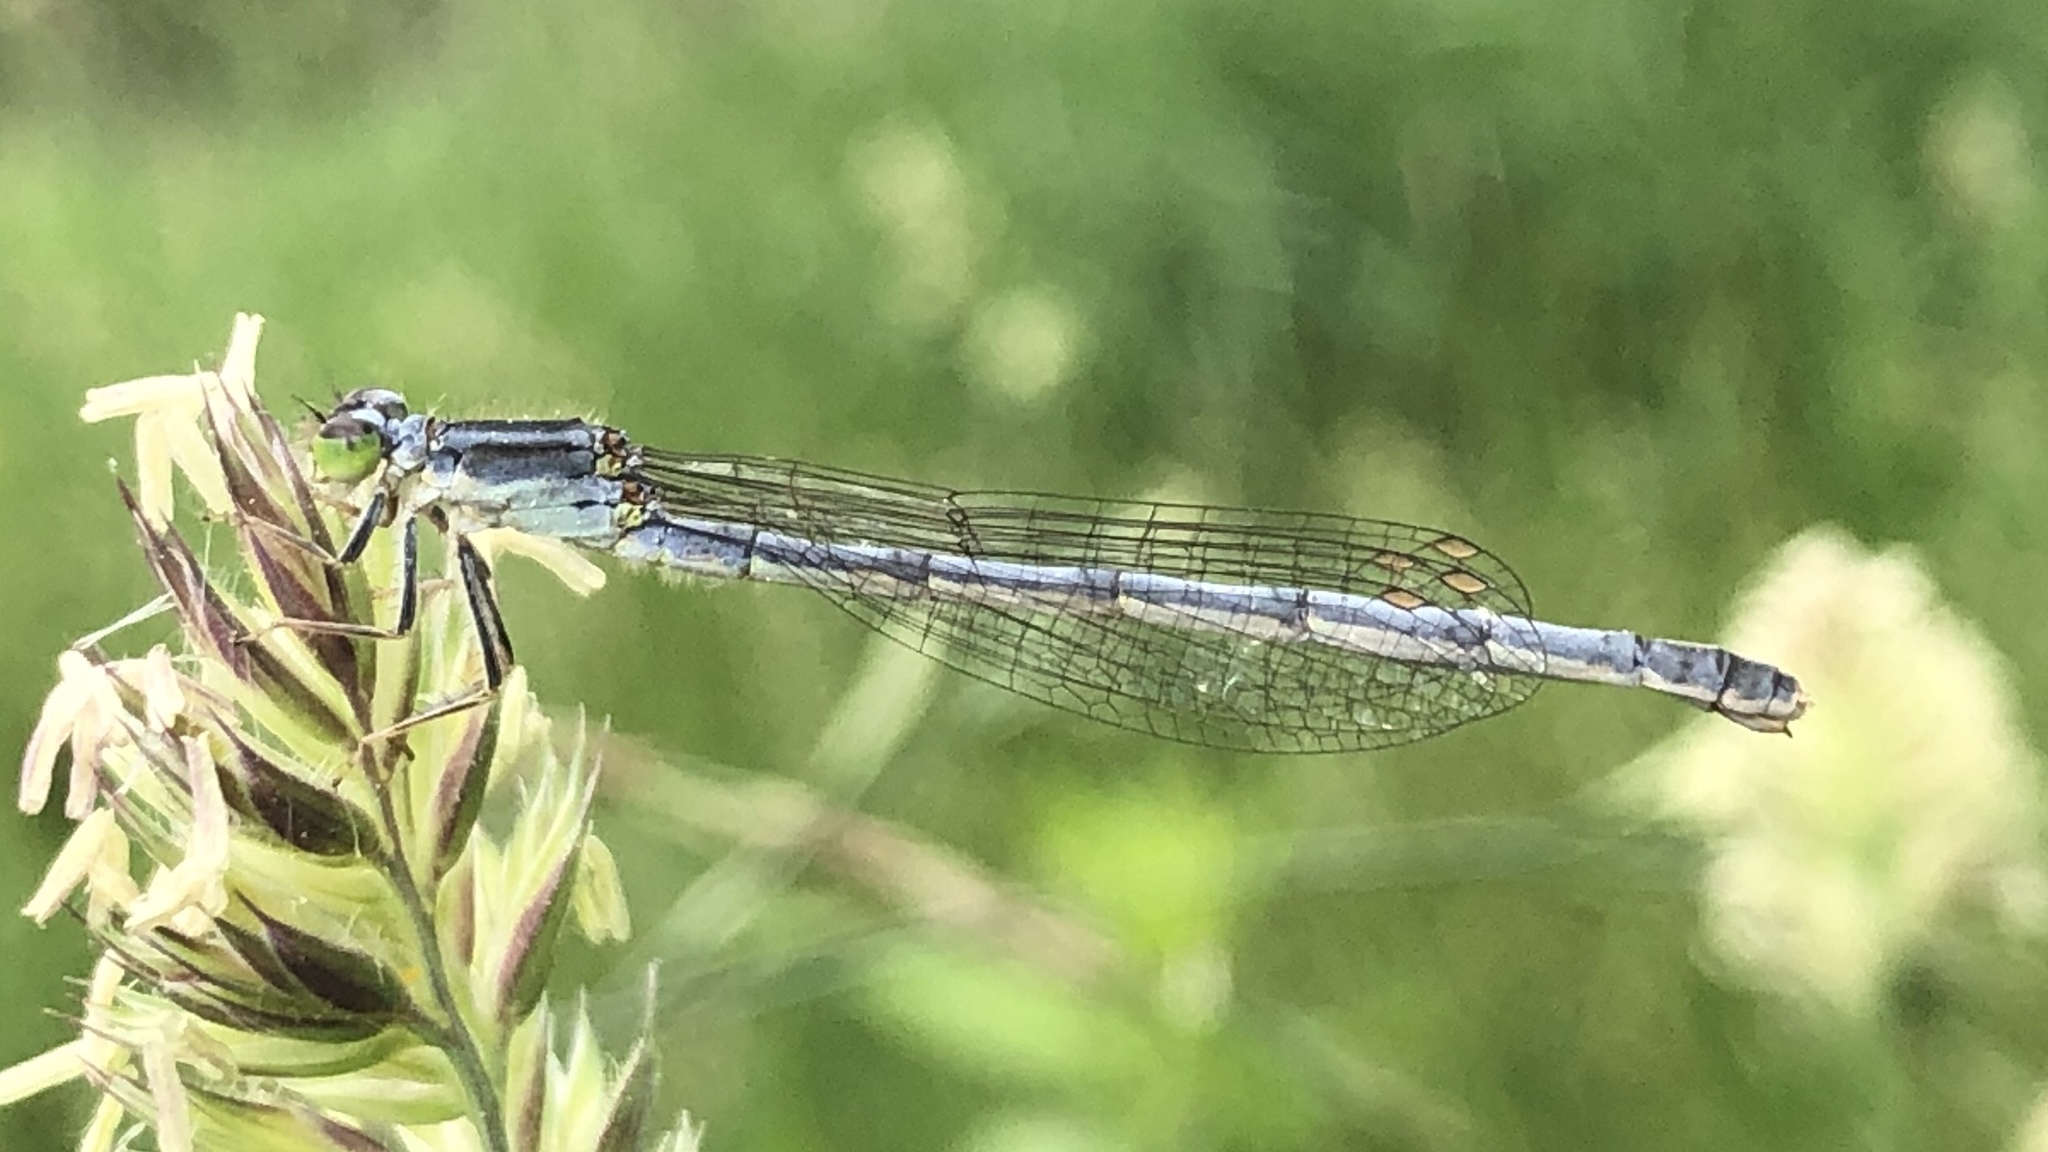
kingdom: Animalia
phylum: Arthropoda
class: Insecta
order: Odonata
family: Coenagrionidae
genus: Ischnura
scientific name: Ischnura verticalis
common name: Eastern forktail
